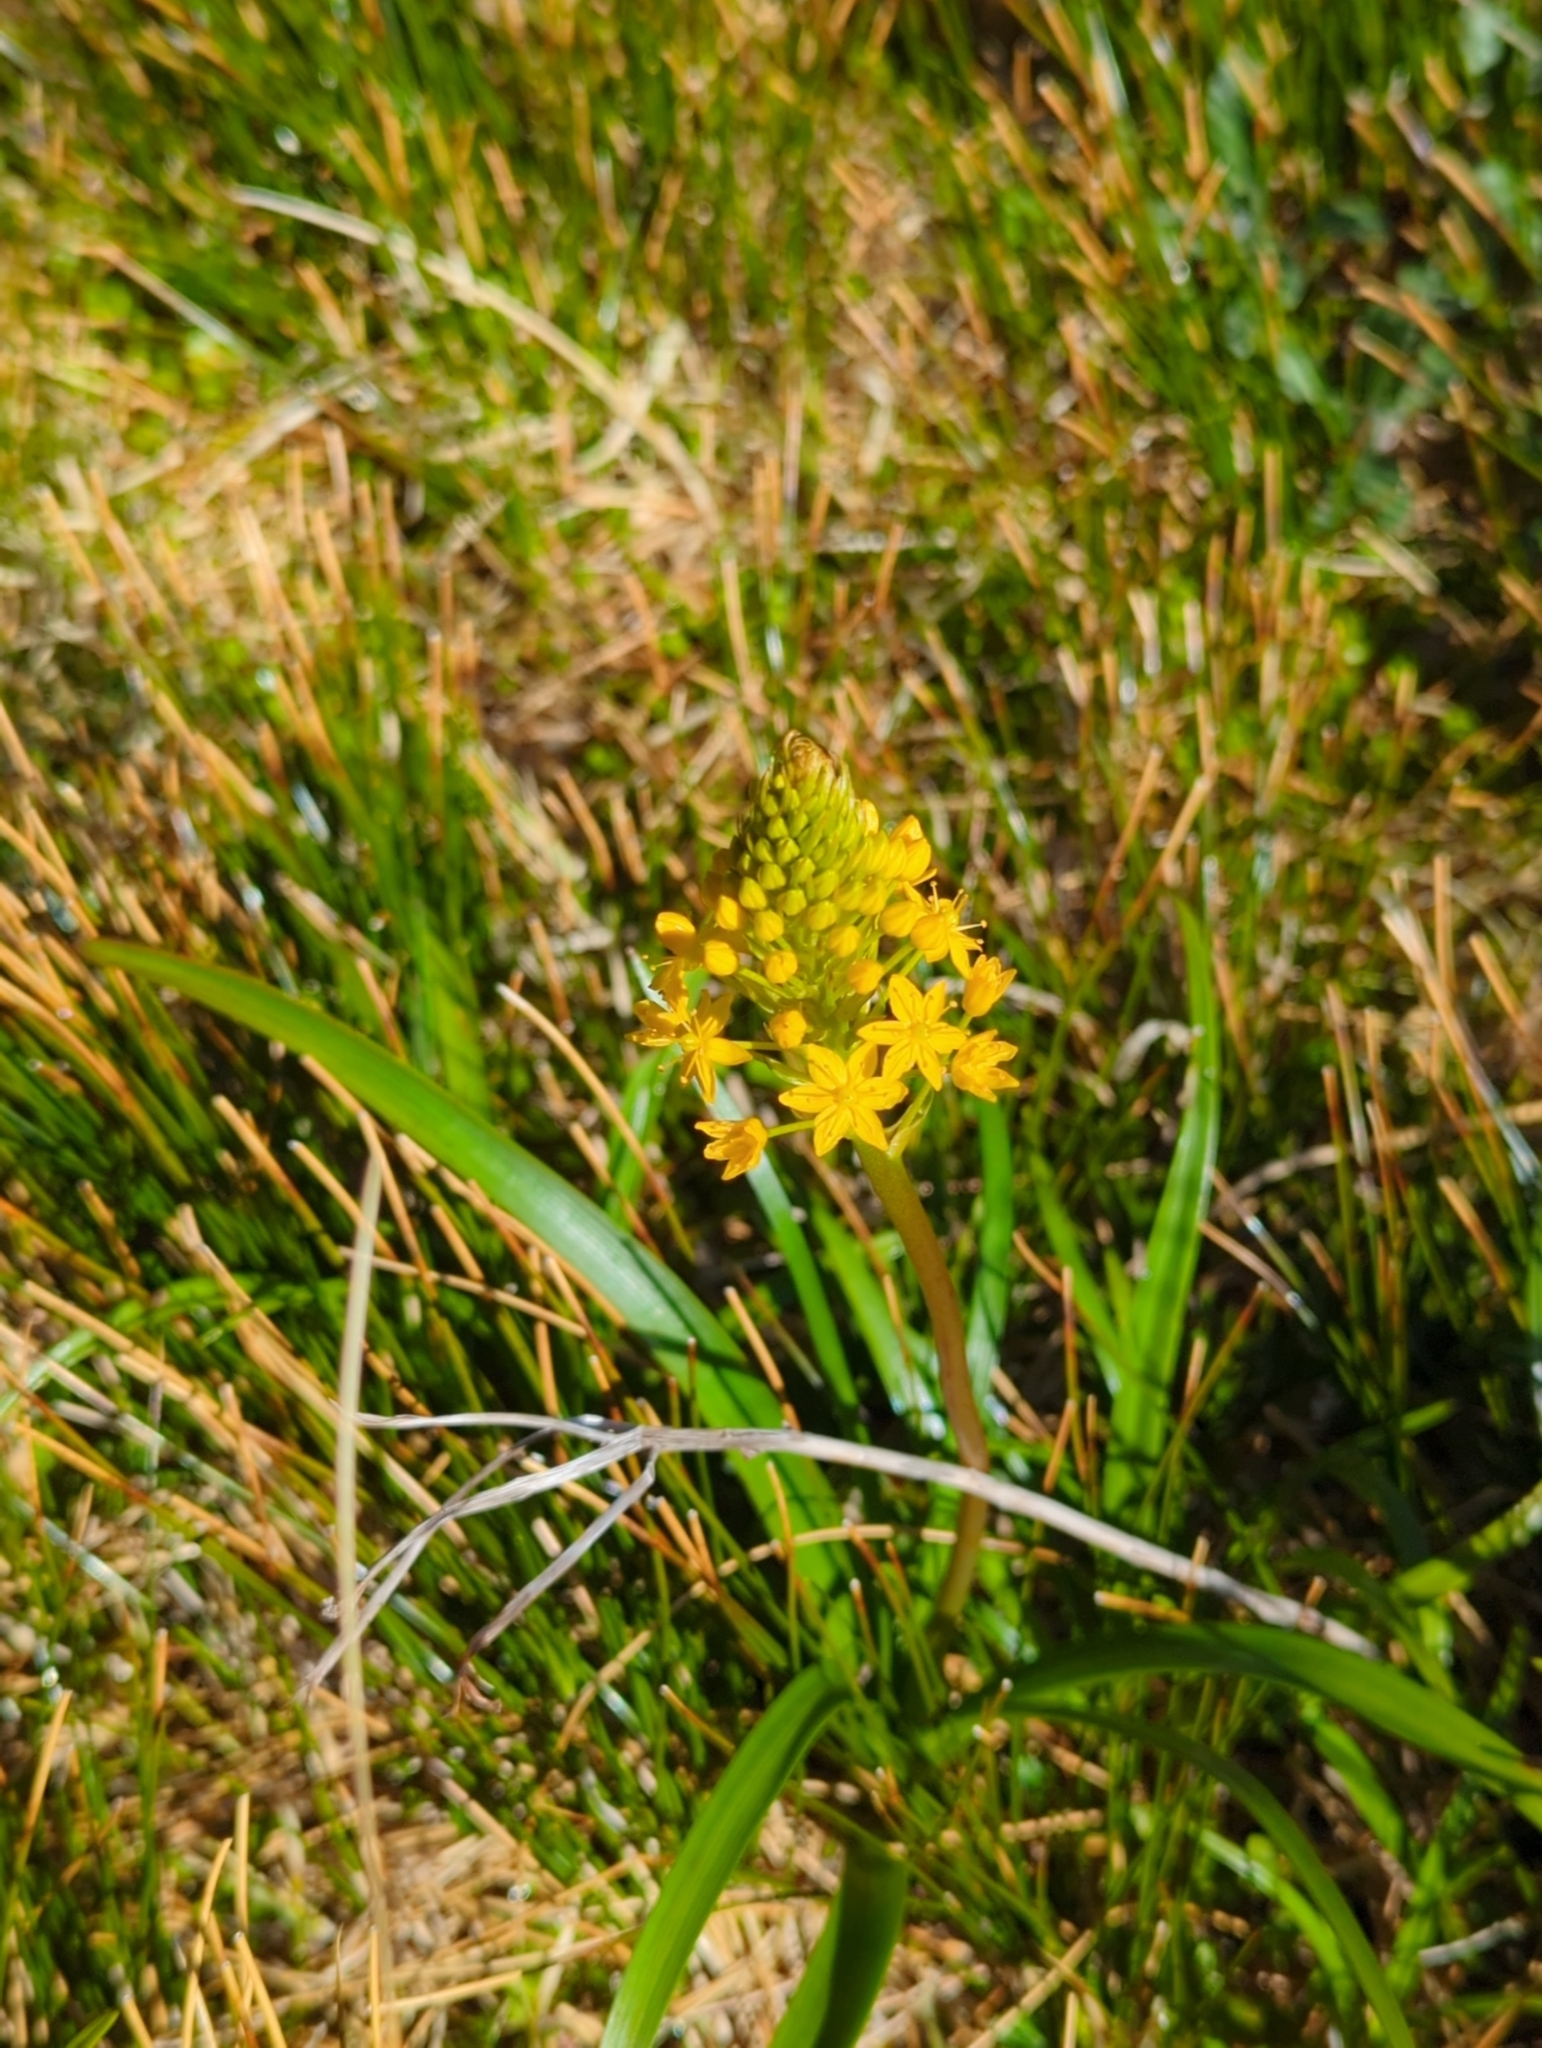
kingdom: Plantae
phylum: Tracheophyta
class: Liliopsida
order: Asparagales
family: Asphodelaceae
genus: Bulbinella
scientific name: Bulbinella gibbsii
